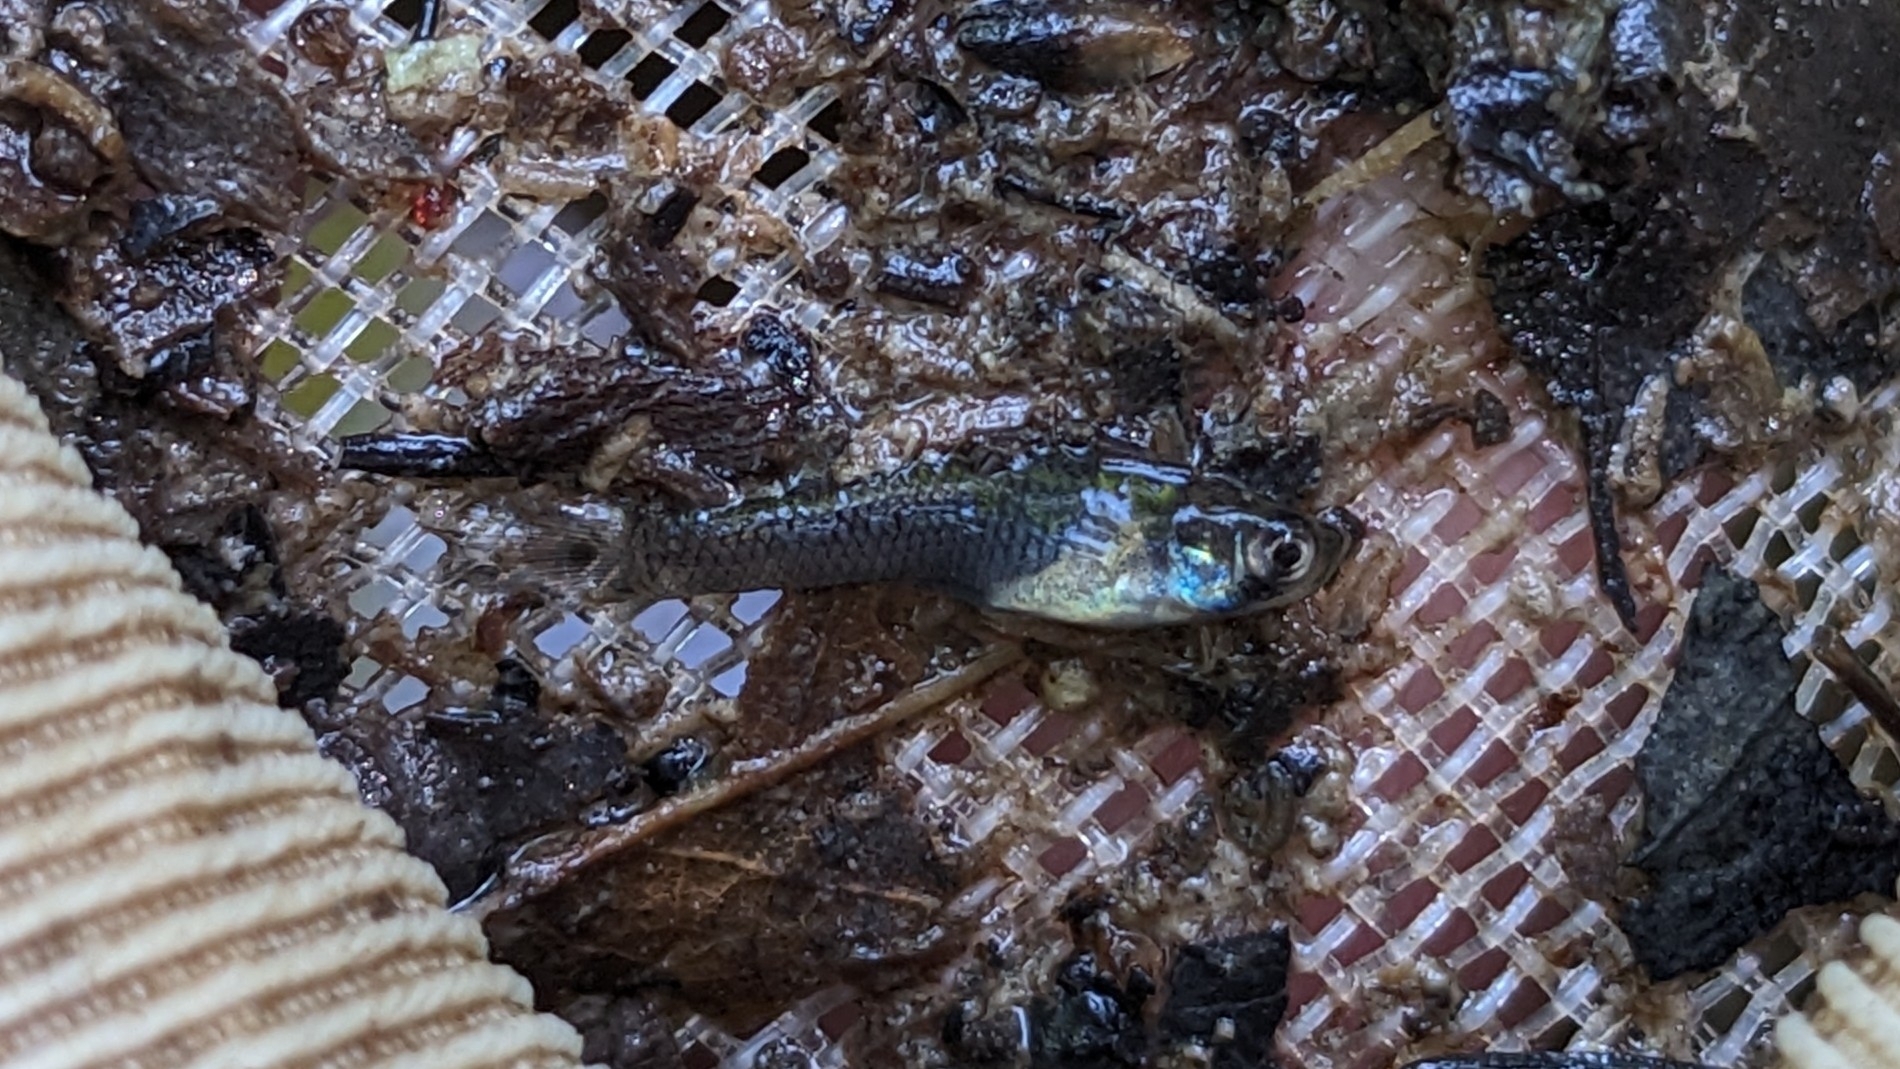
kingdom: Animalia
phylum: Chordata
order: Cyprinodontiformes
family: Poeciliidae
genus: Gambusia
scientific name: Gambusia affinis
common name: Mosquitofish
